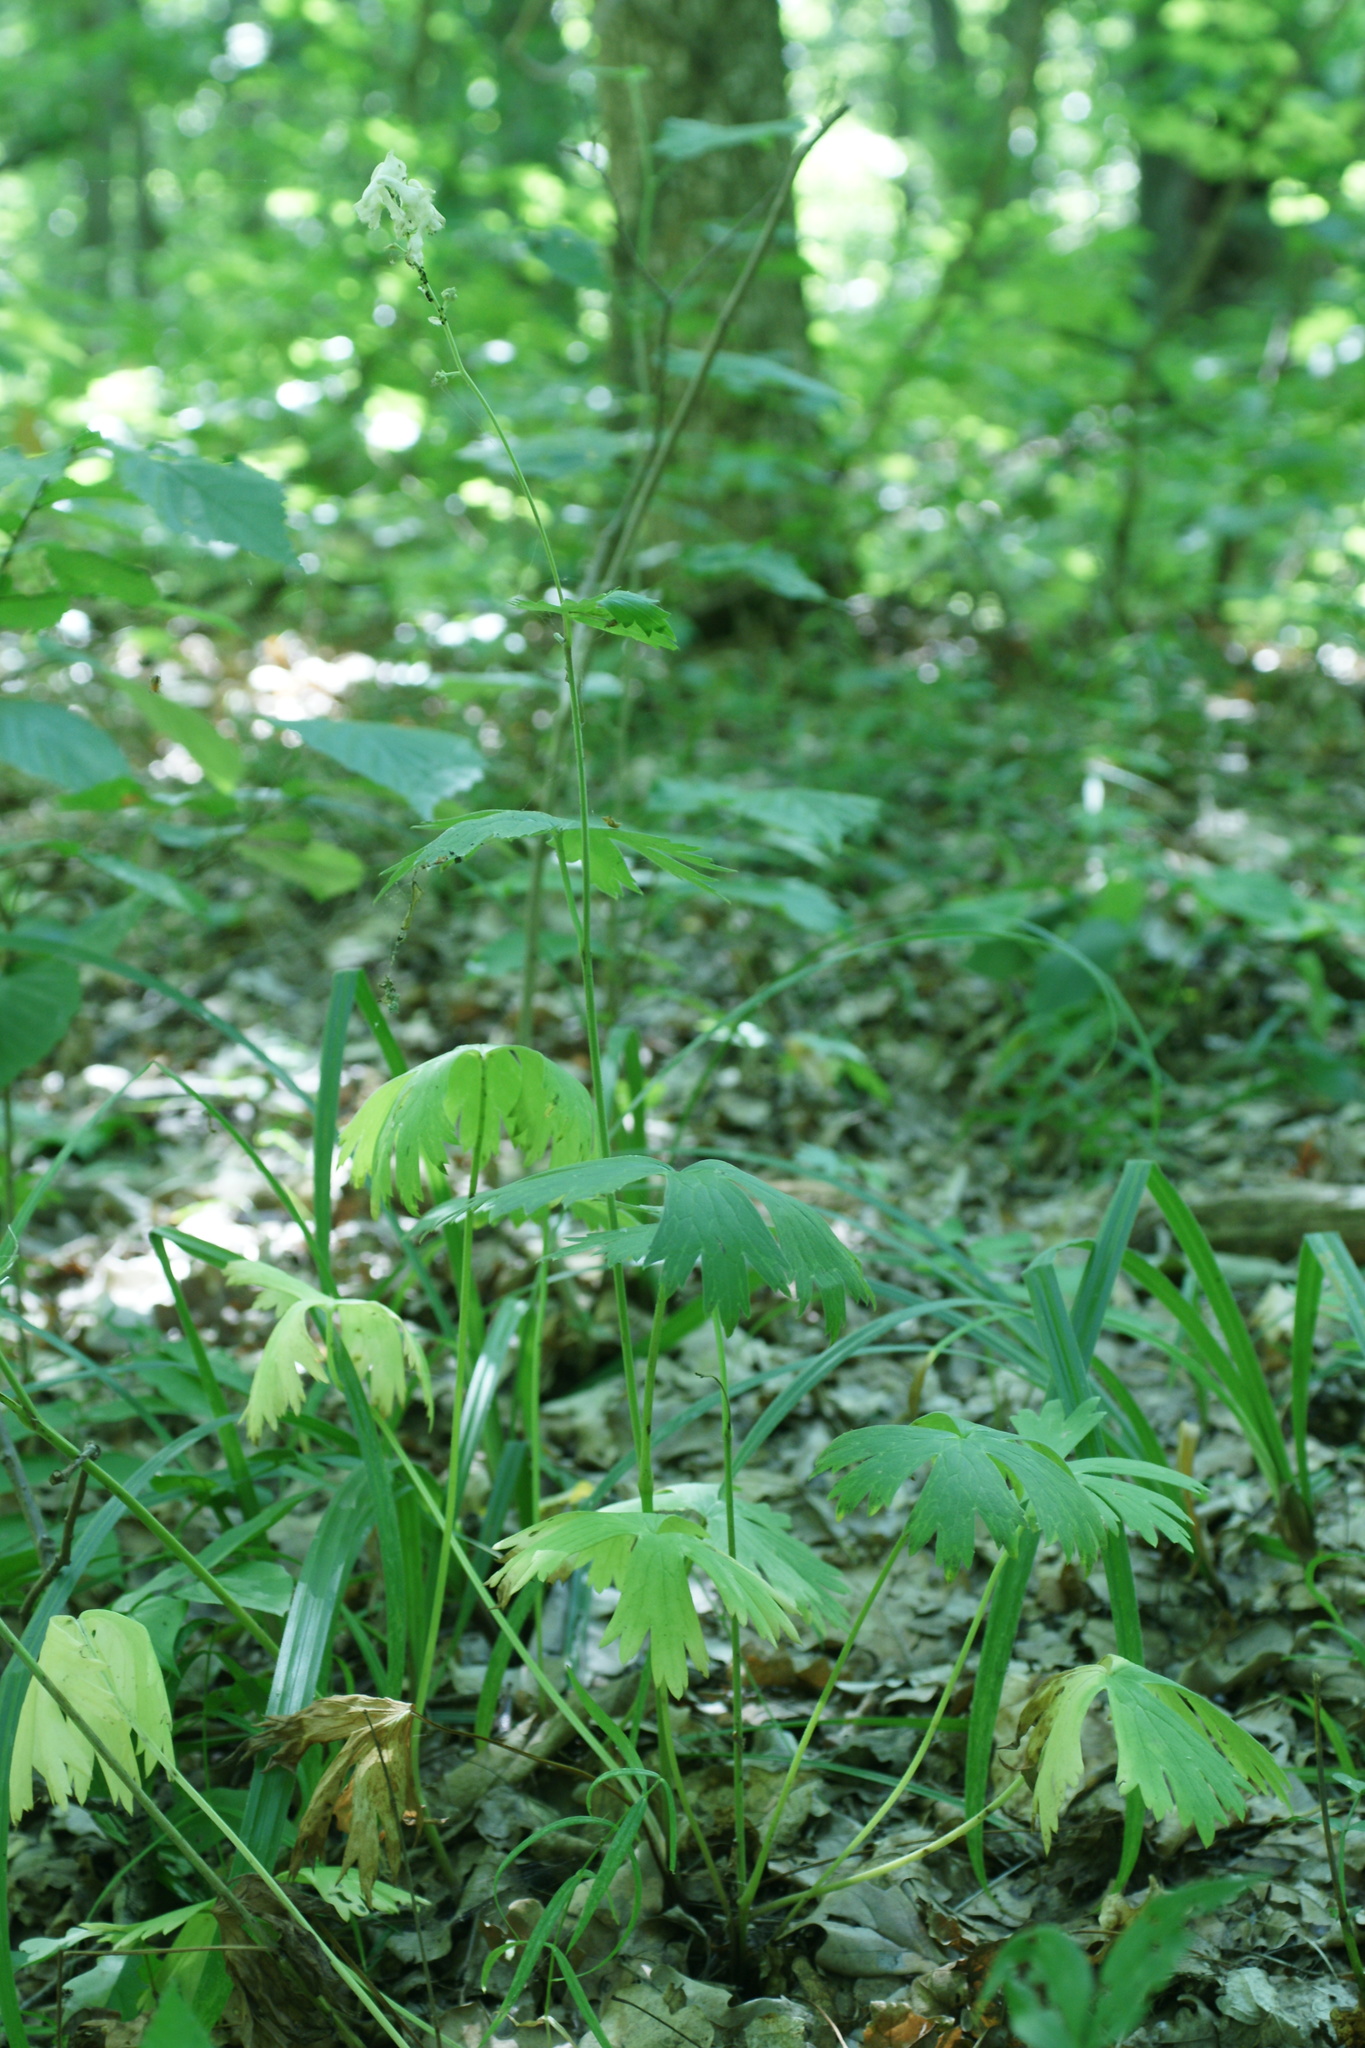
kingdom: Plantae
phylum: Tracheophyta
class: Magnoliopsida
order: Ranunculales
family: Ranunculaceae
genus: Aconitum
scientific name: Aconitum lasiostomum
